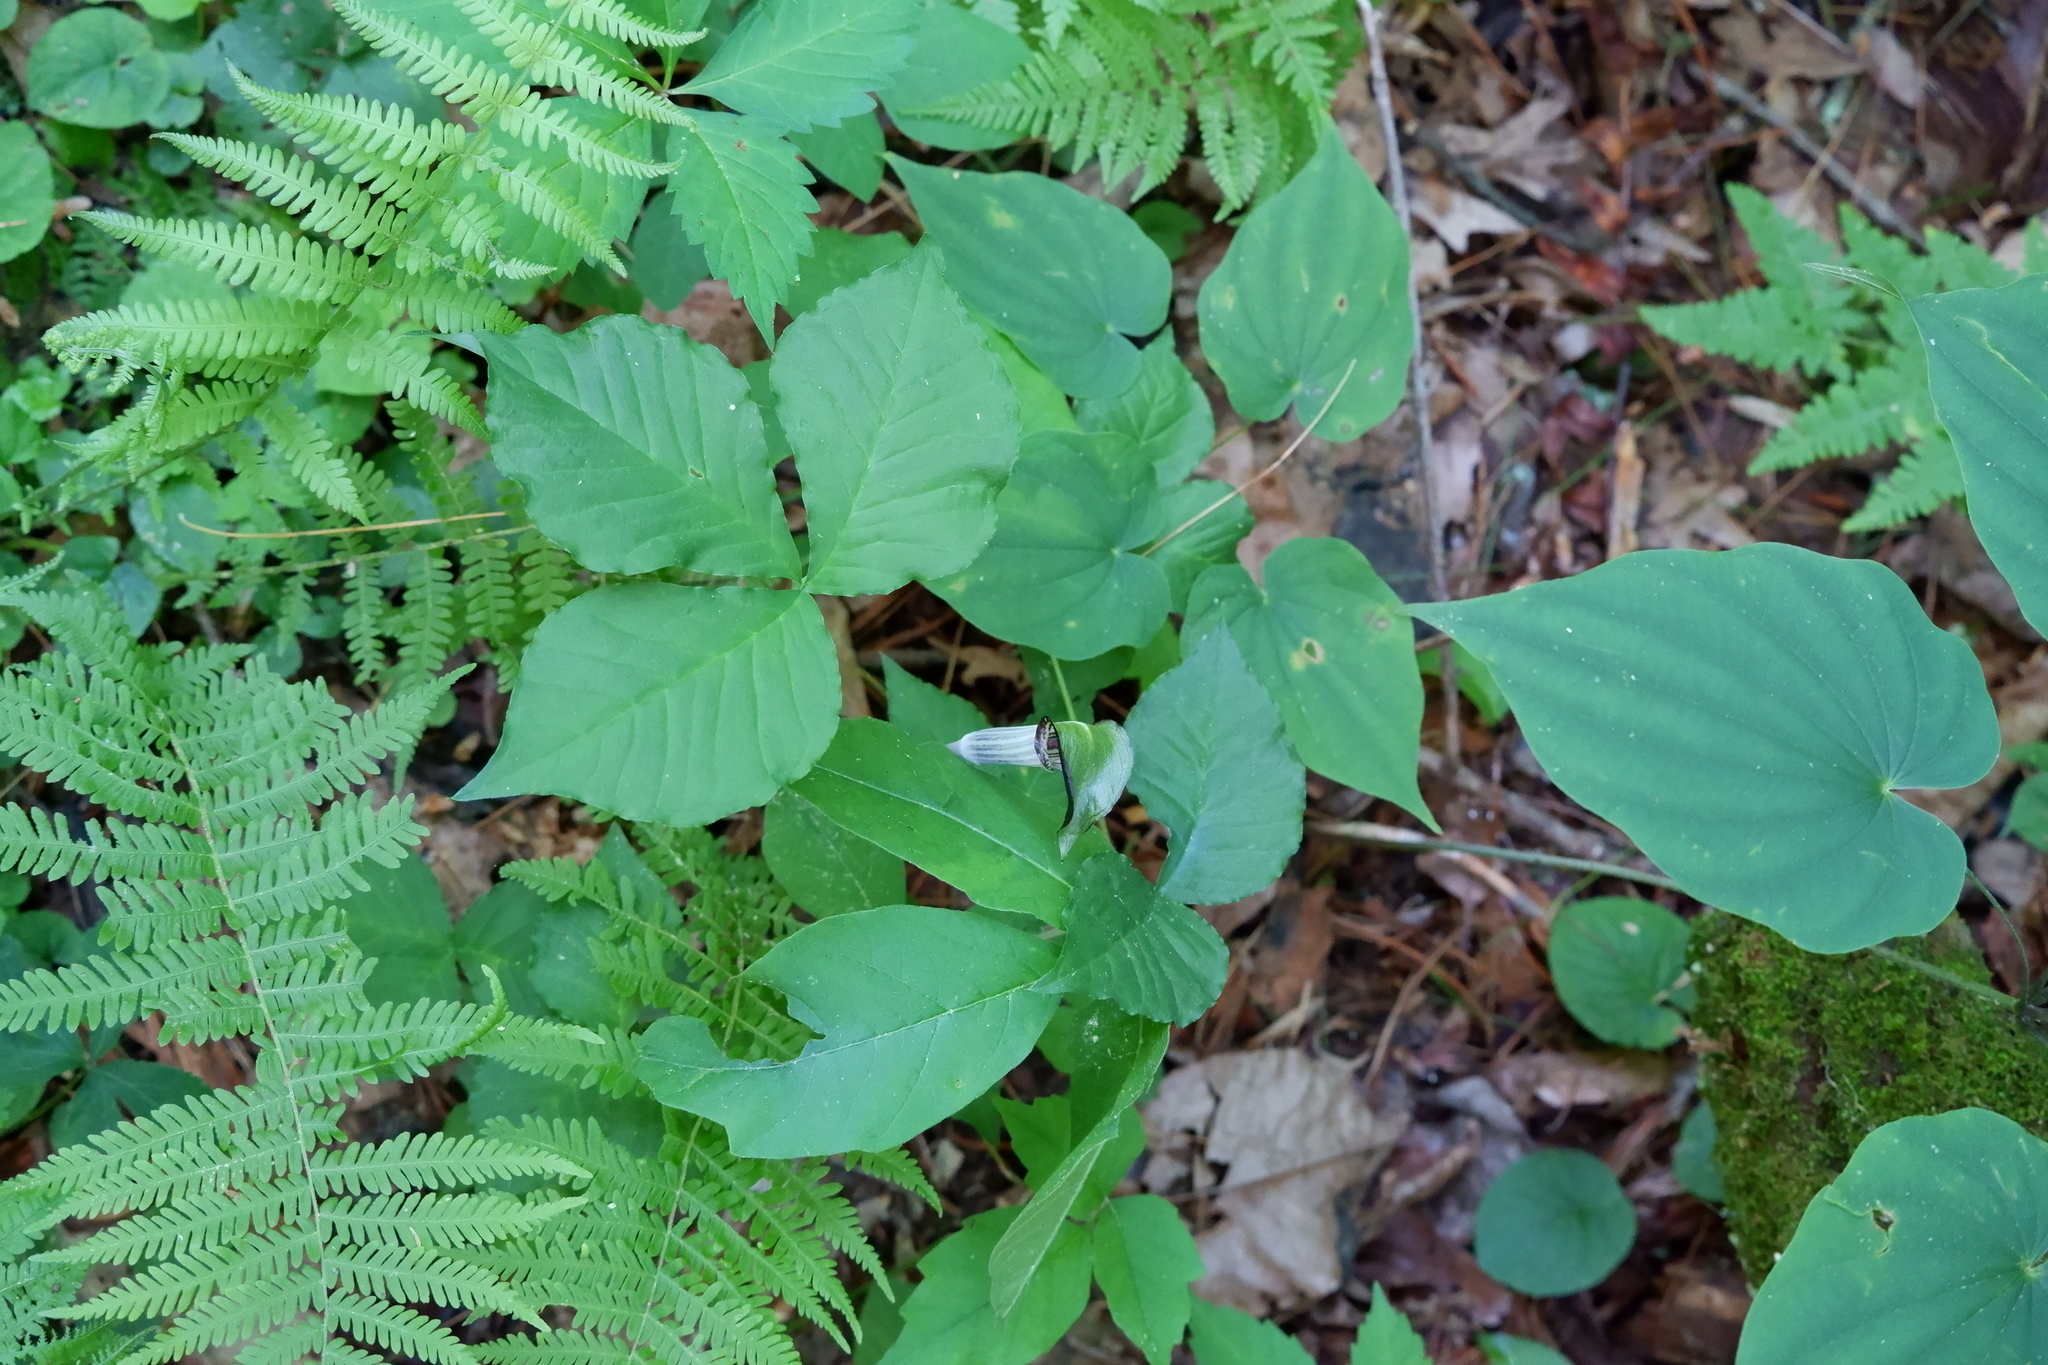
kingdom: Plantae
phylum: Tracheophyta
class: Liliopsida
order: Alismatales
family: Araceae
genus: Arisaema
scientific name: Arisaema triphyllum
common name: Jack-in-the-pulpit
